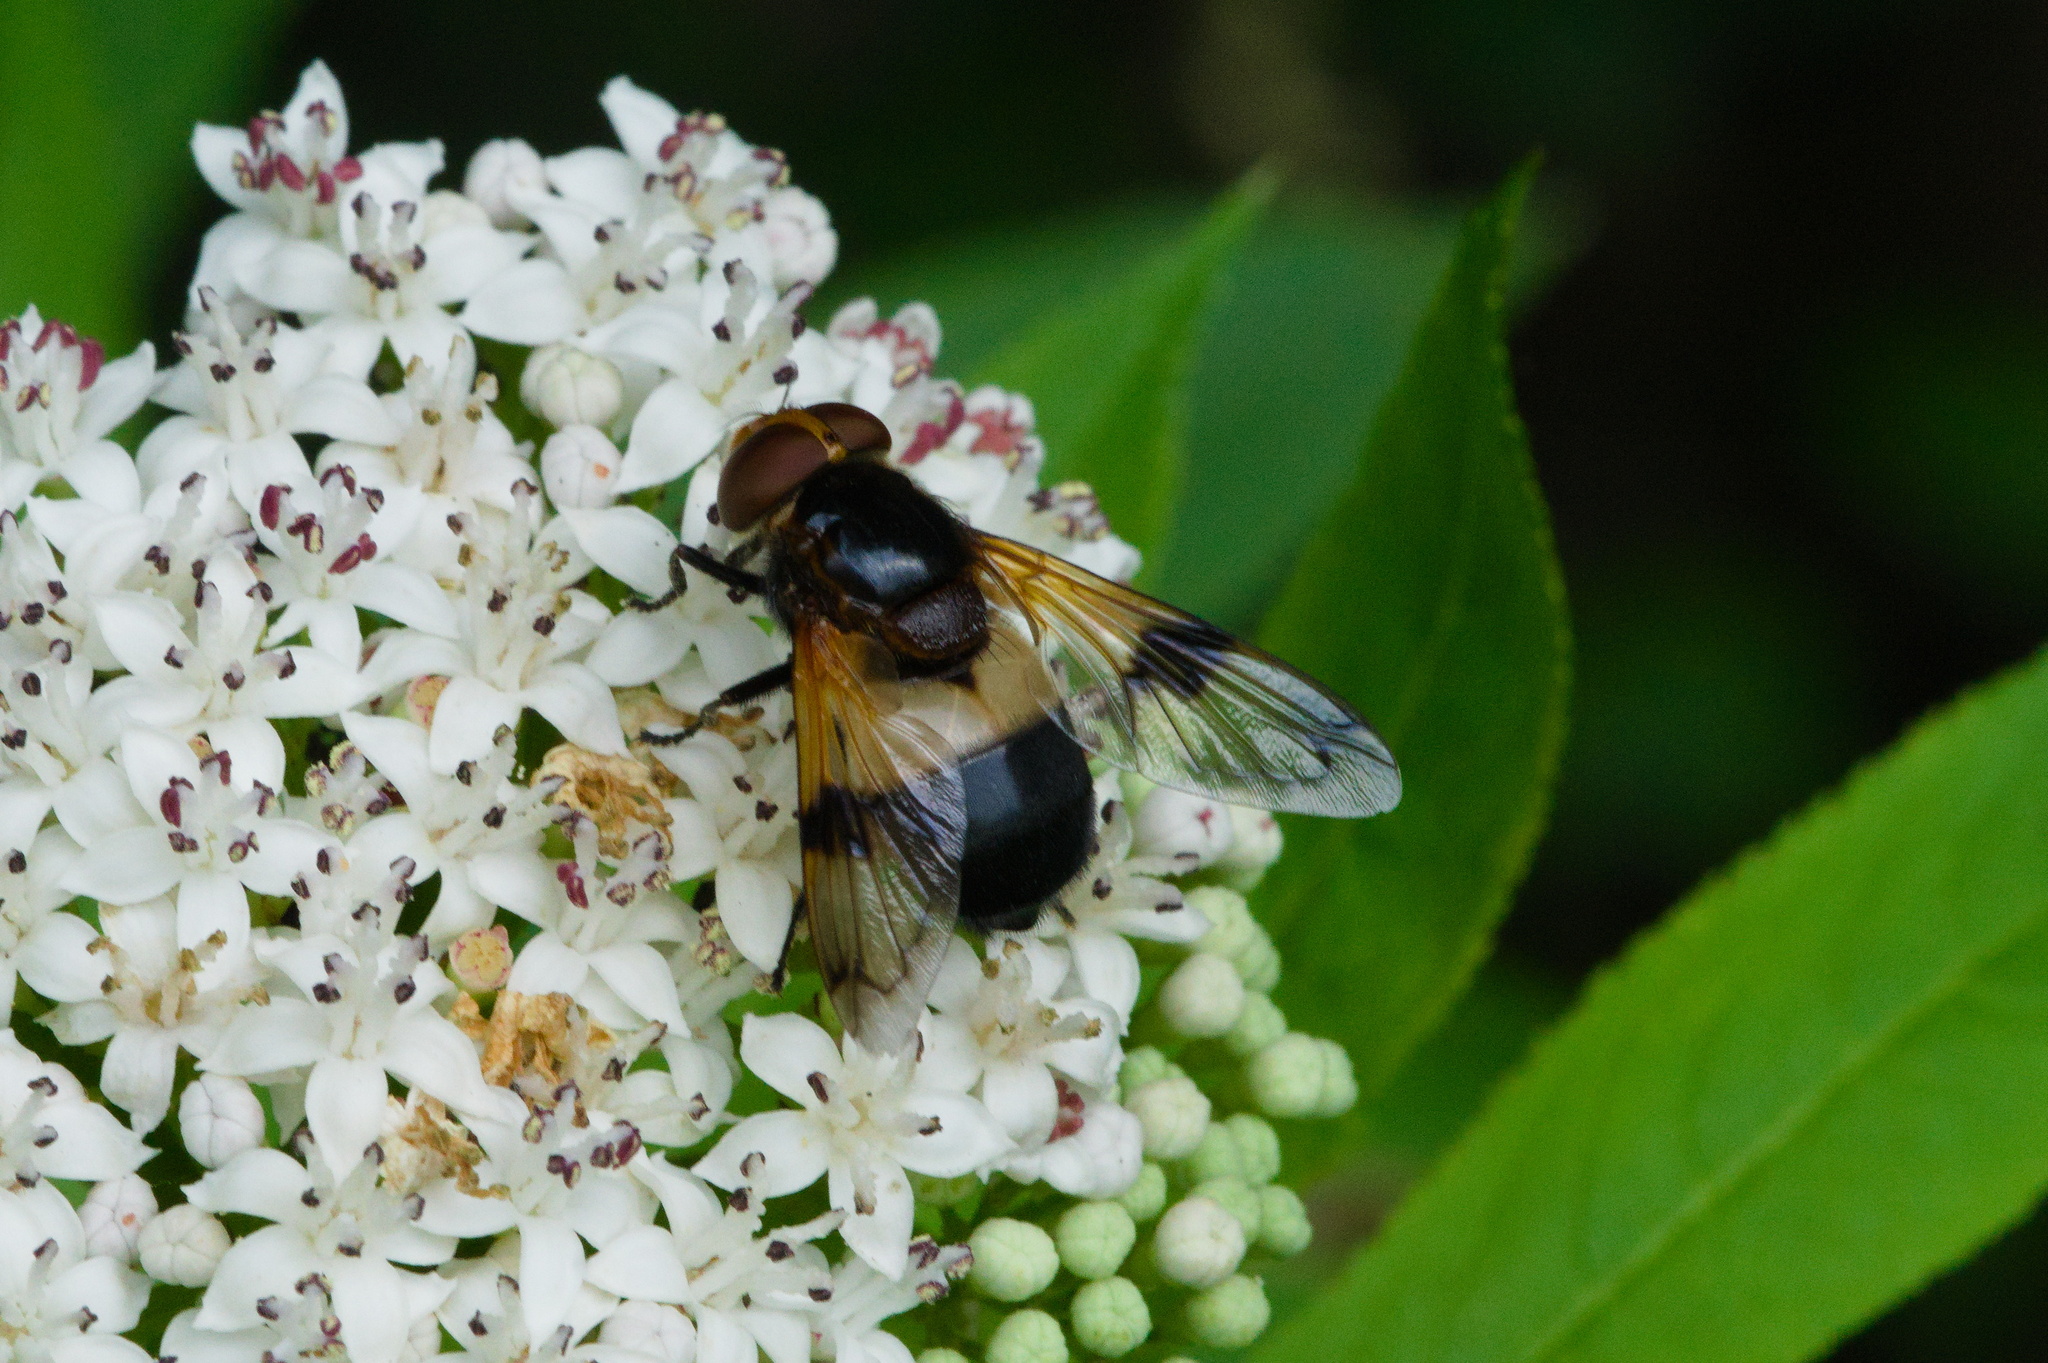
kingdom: Animalia
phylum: Arthropoda
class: Insecta
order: Diptera
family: Syrphidae
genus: Volucella
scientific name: Volucella pellucens
